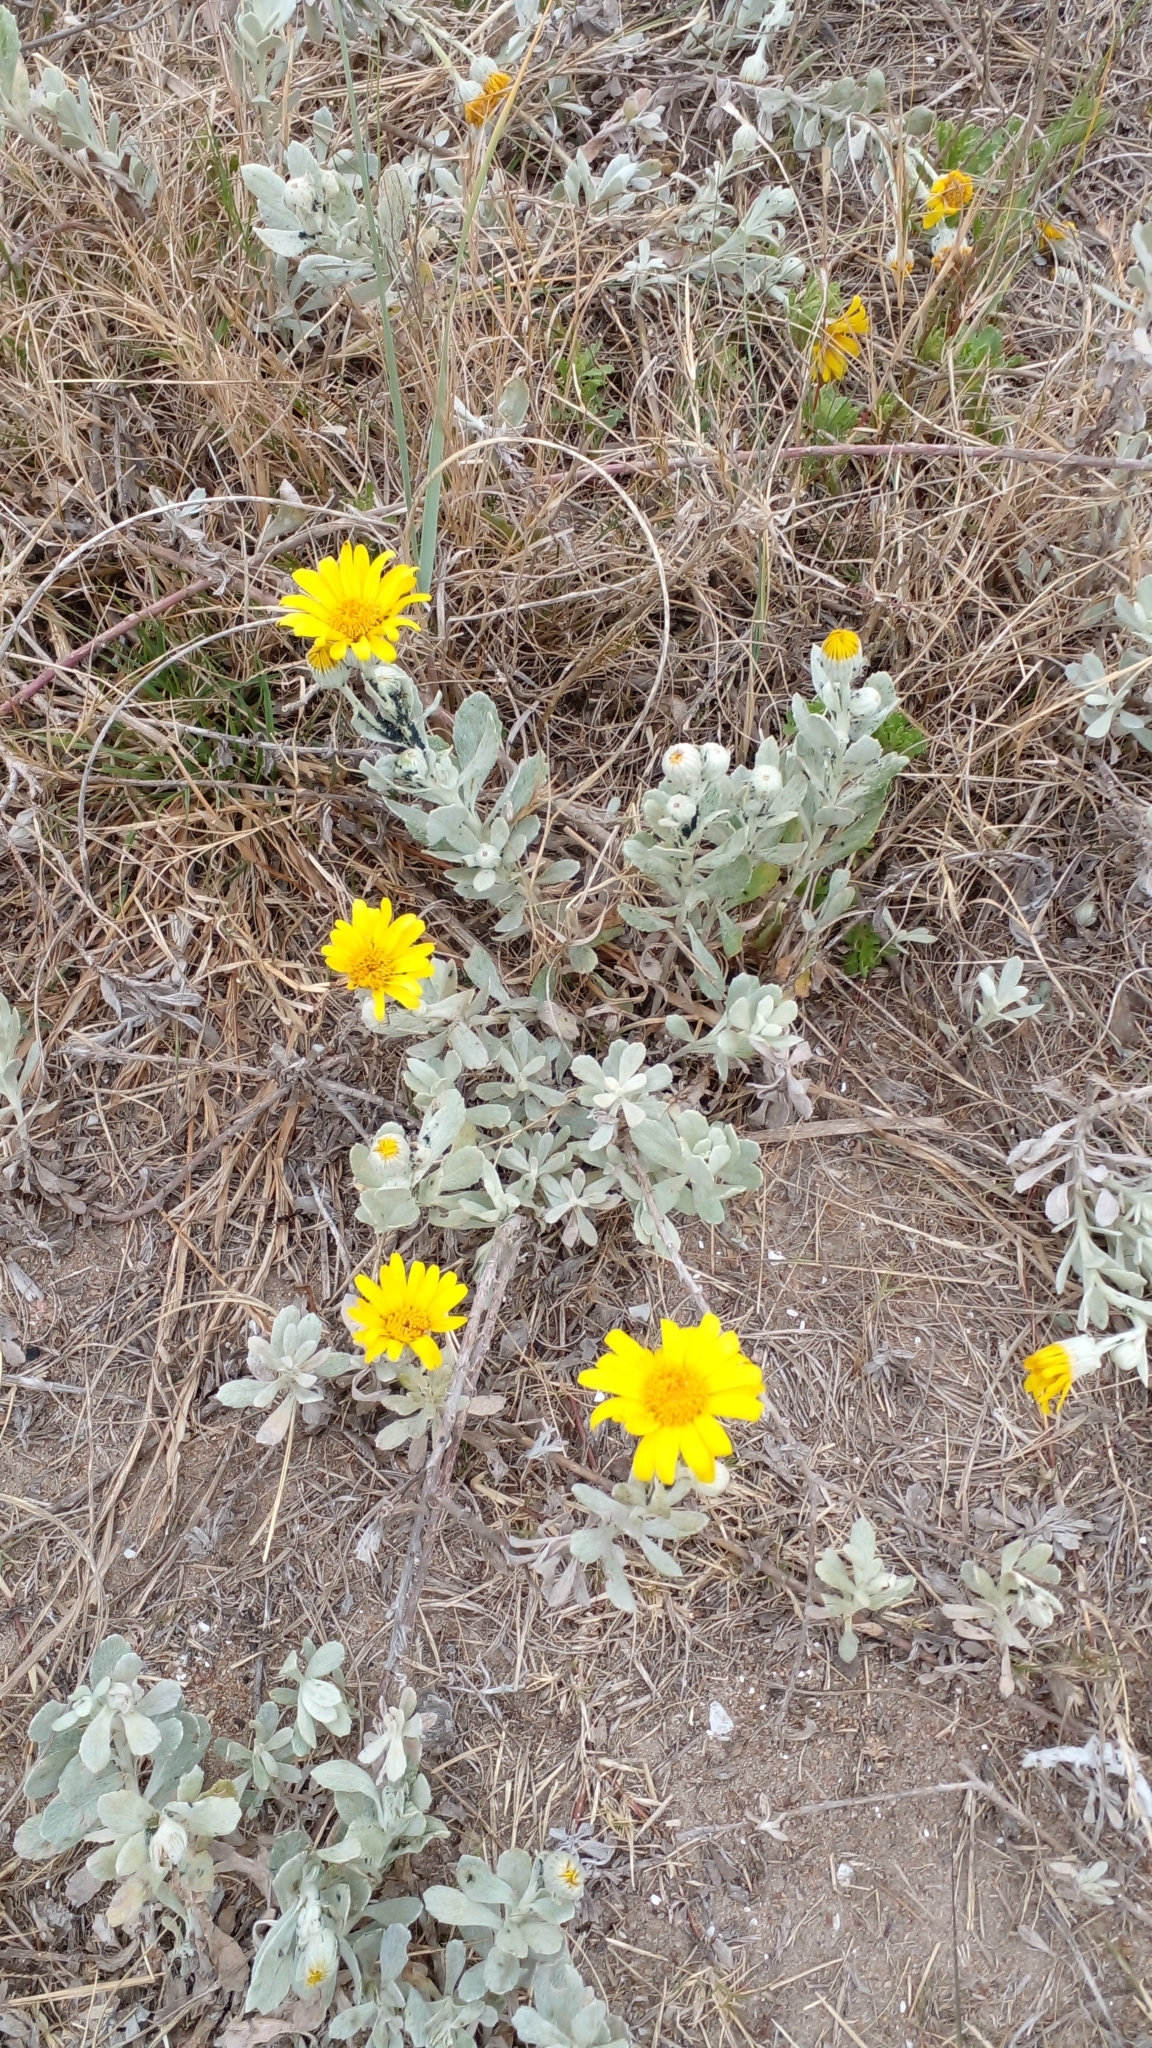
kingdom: Plantae
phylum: Tracheophyta
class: Magnoliopsida
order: Asterales
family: Asteraceae
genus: Senecio
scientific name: Senecio crassiflorus
